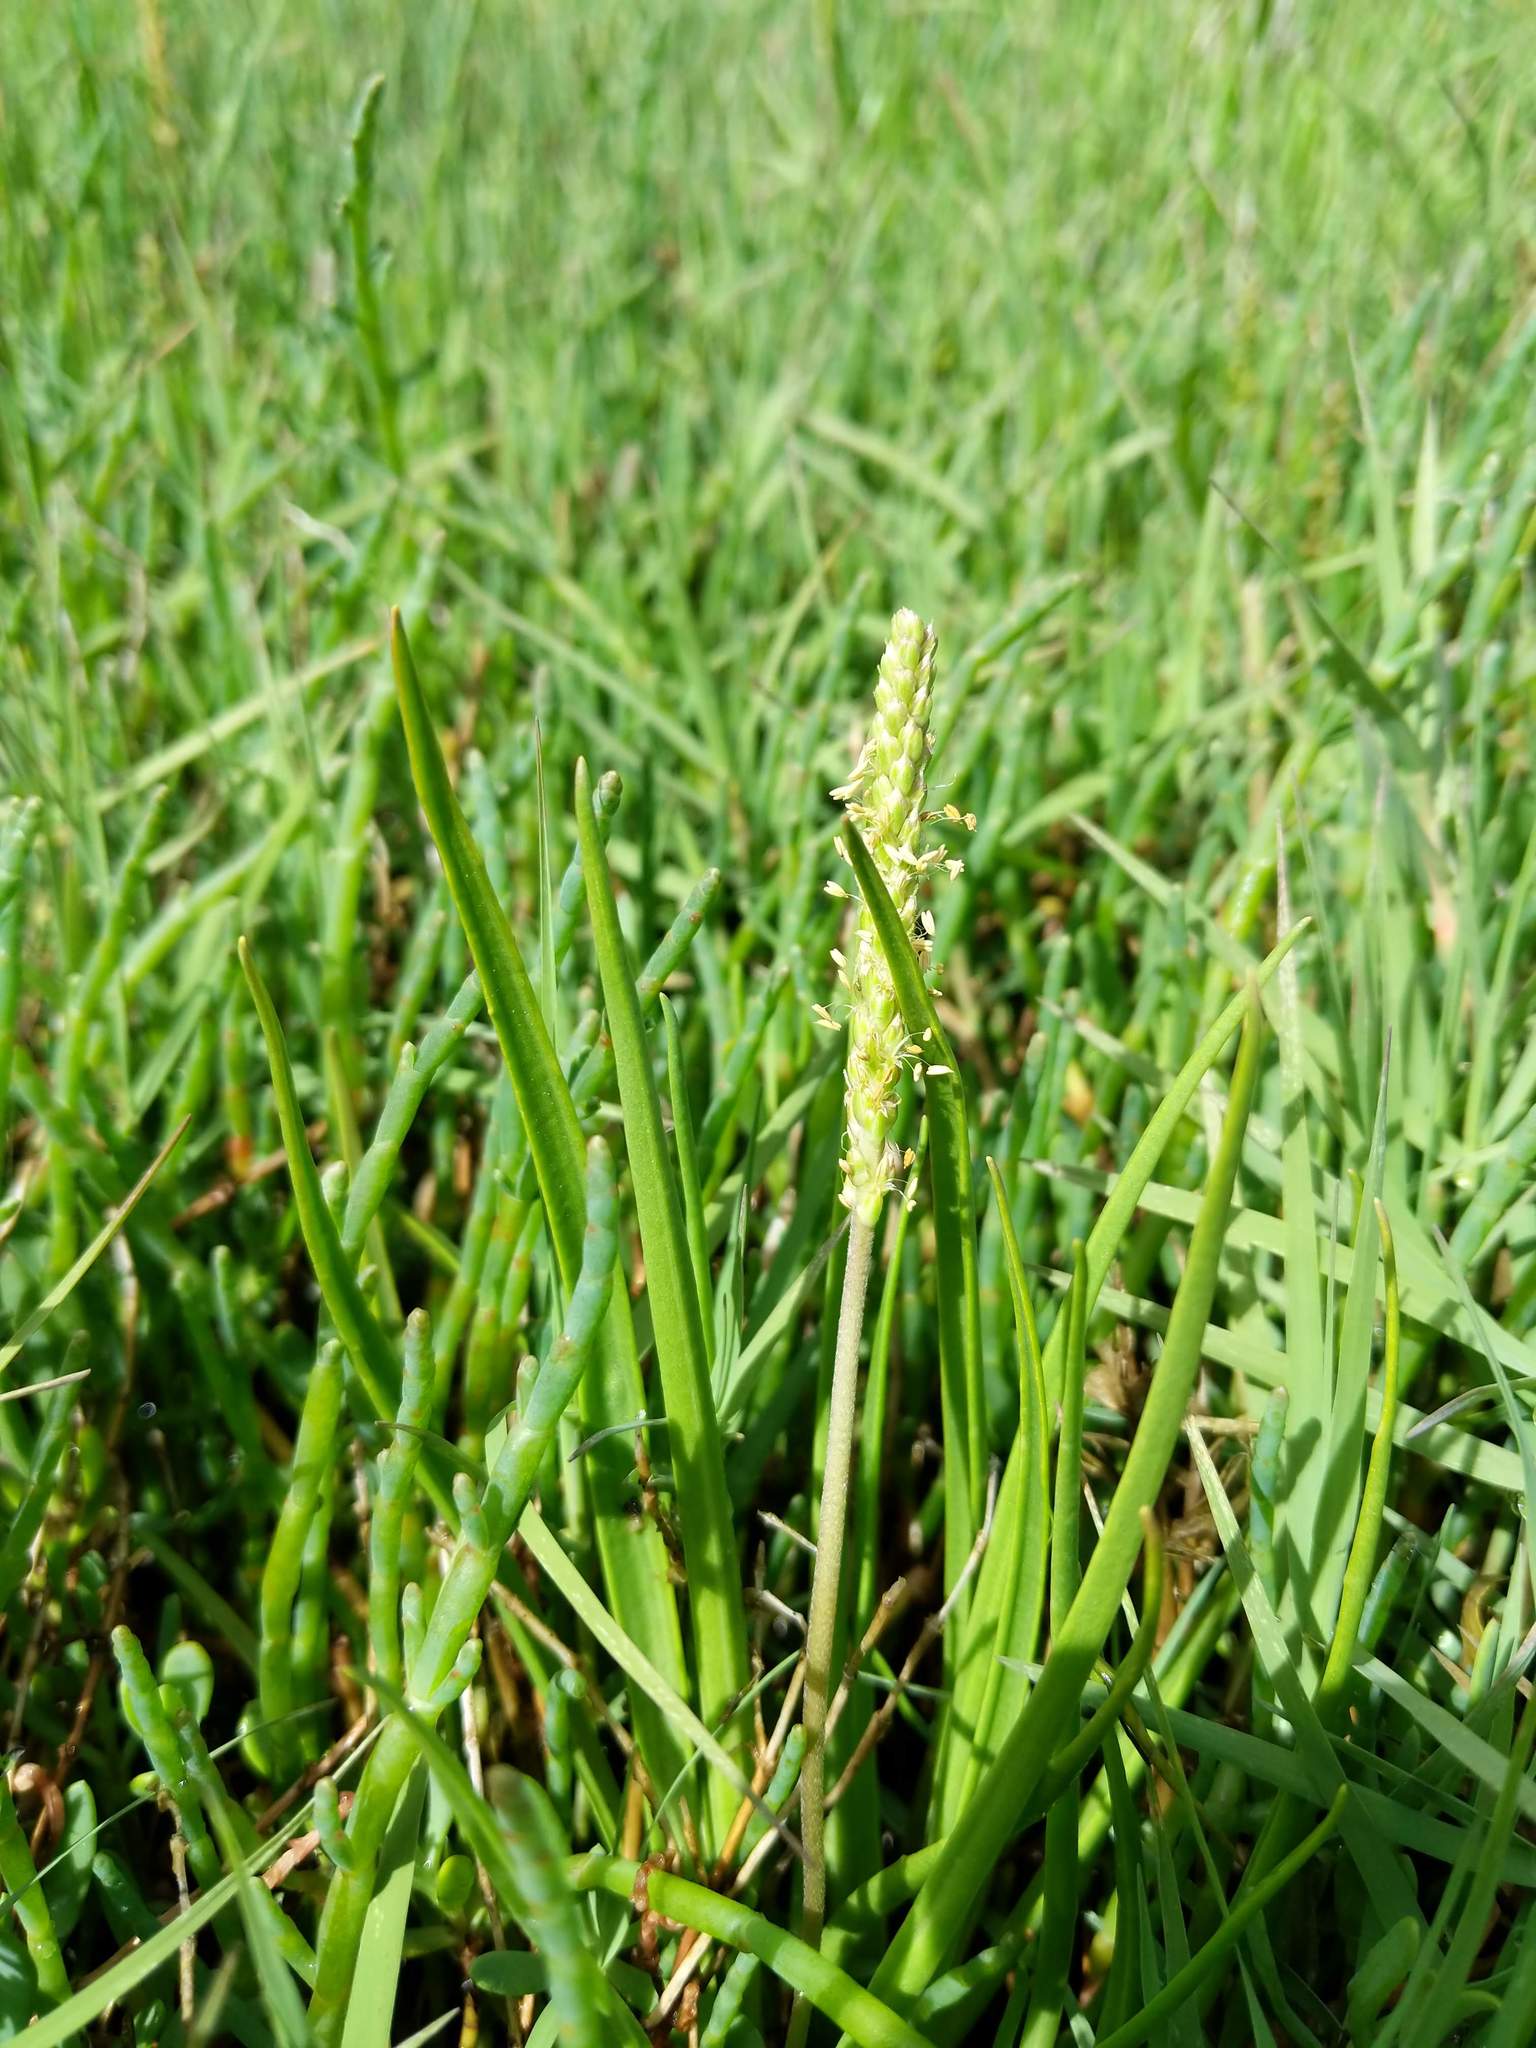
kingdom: Plantae
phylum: Tracheophyta
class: Magnoliopsida
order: Lamiales
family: Plantaginaceae
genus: Plantago
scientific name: Plantago maritima
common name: Sea plantain
